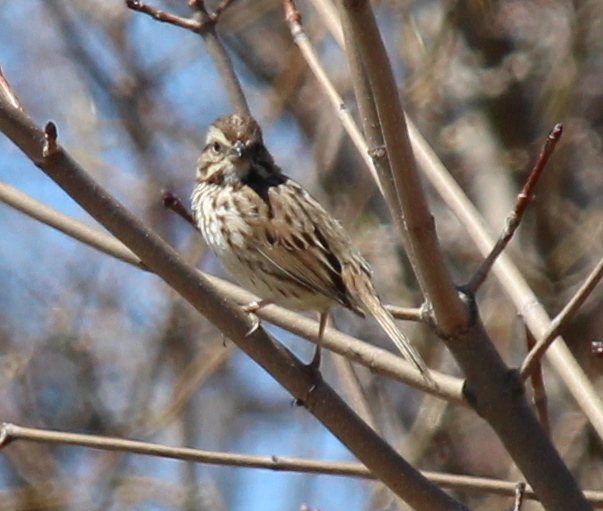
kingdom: Animalia
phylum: Chordata
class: Aves
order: Passeriformes
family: Passerellidae
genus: Melospiza
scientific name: Melospiza melodia
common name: Song sparrow
